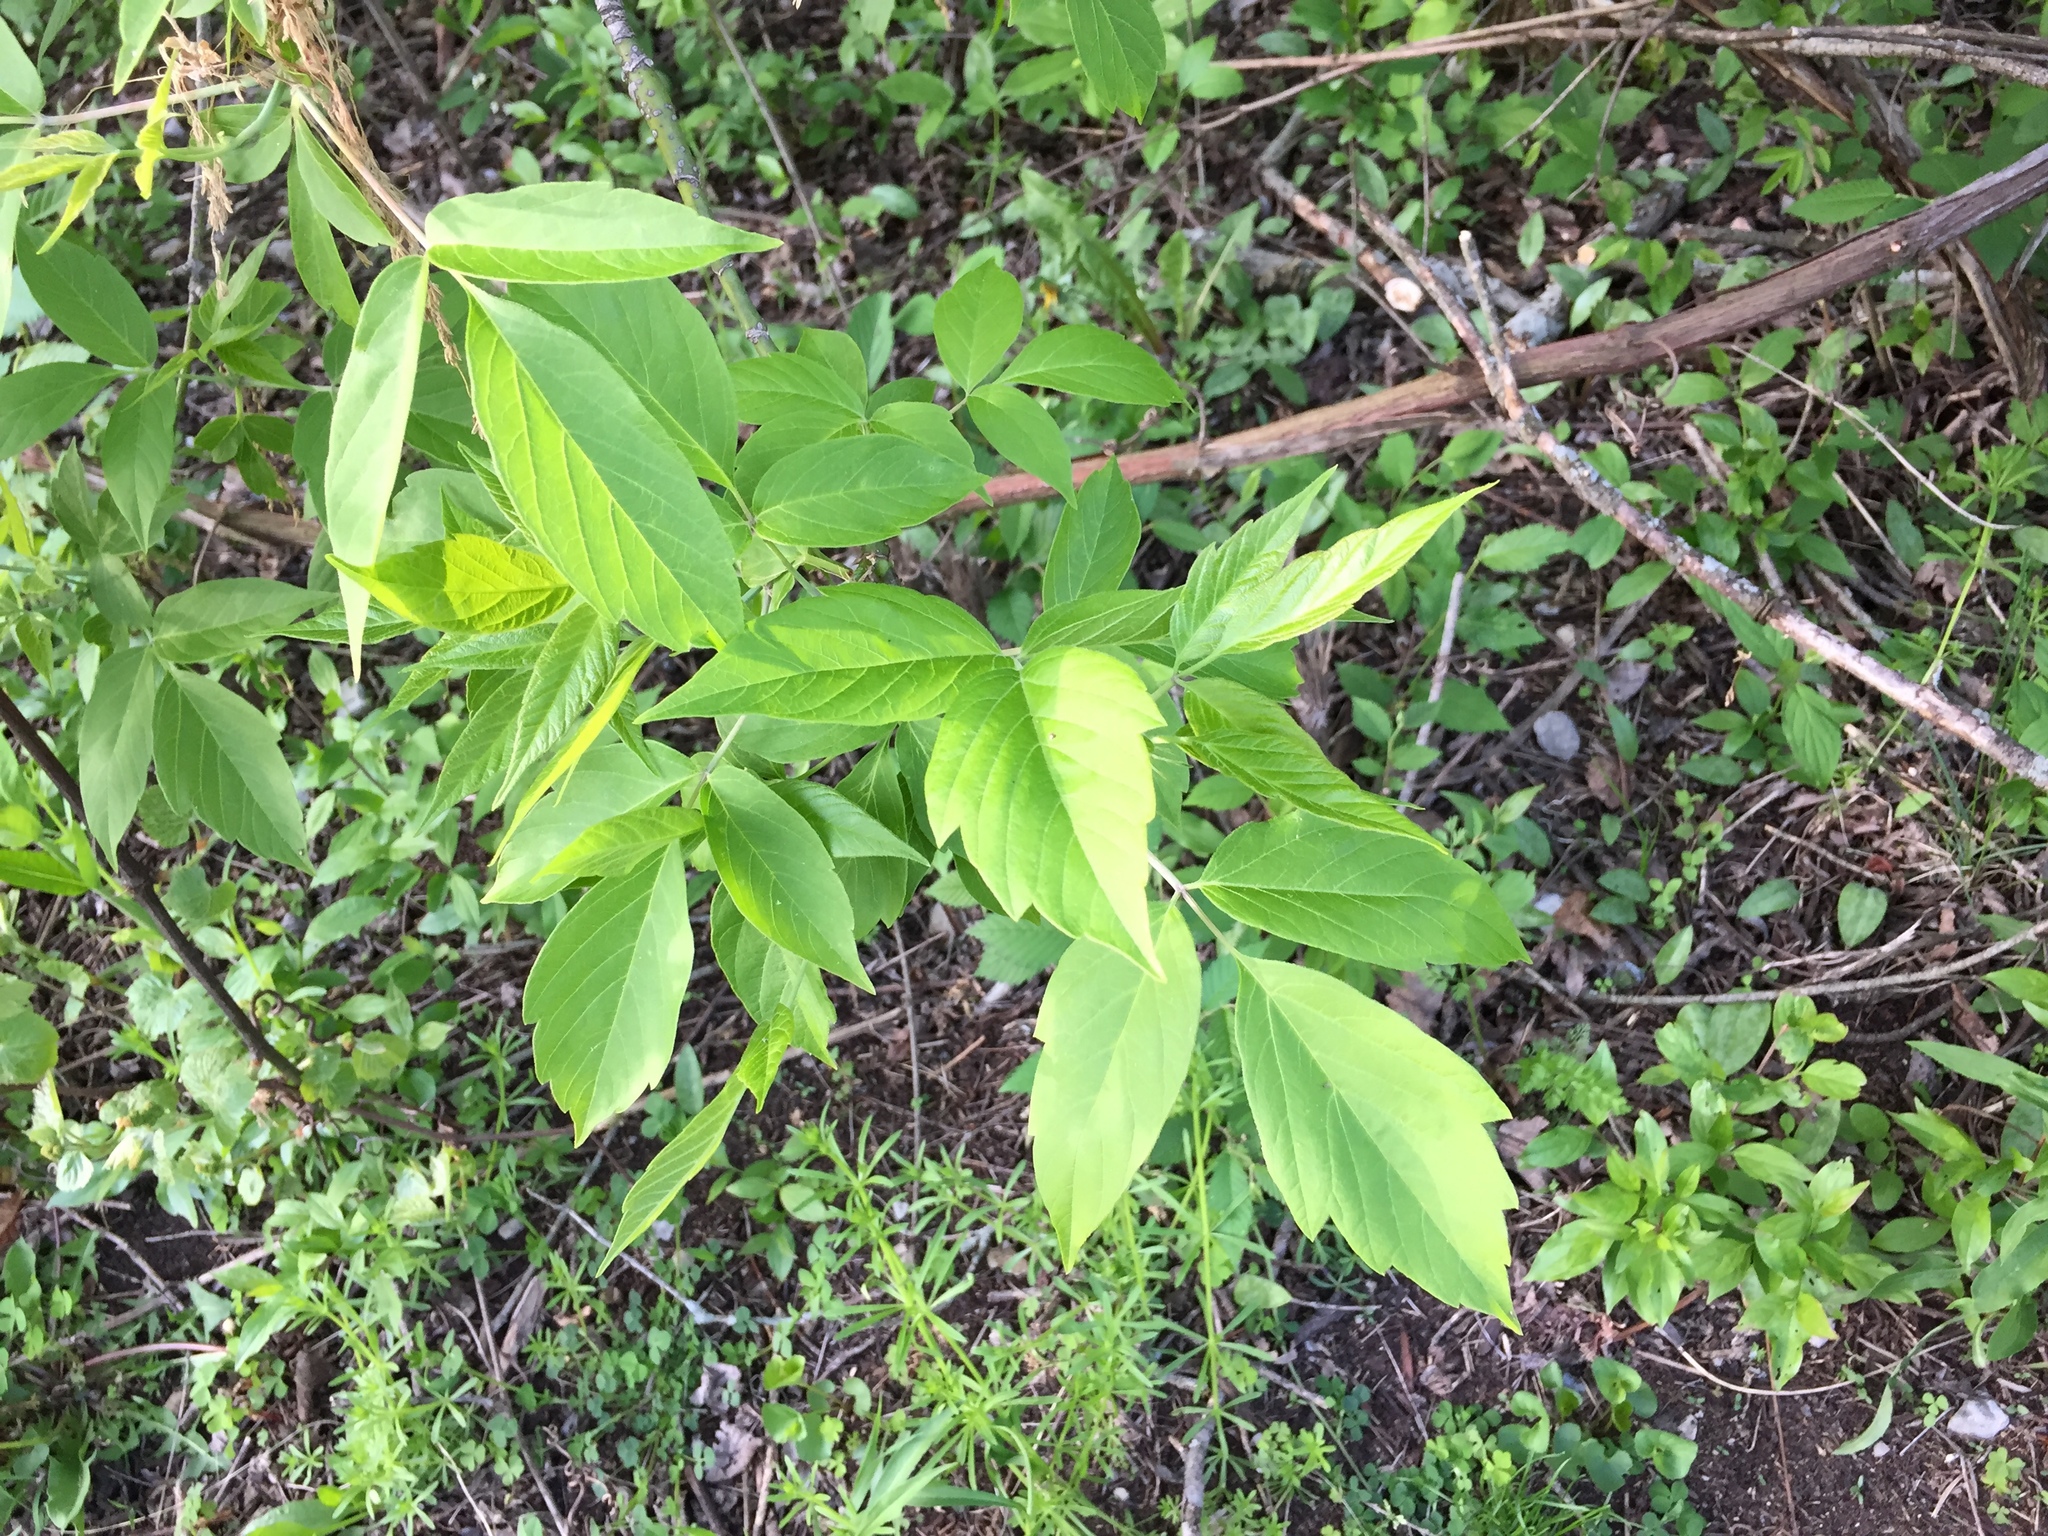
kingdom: Plantae
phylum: Tracheophyta
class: Magnoliopsida
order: Sapindales
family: Sapindaceae
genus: Acer
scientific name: Acer negundo
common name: Ashleaf maple
